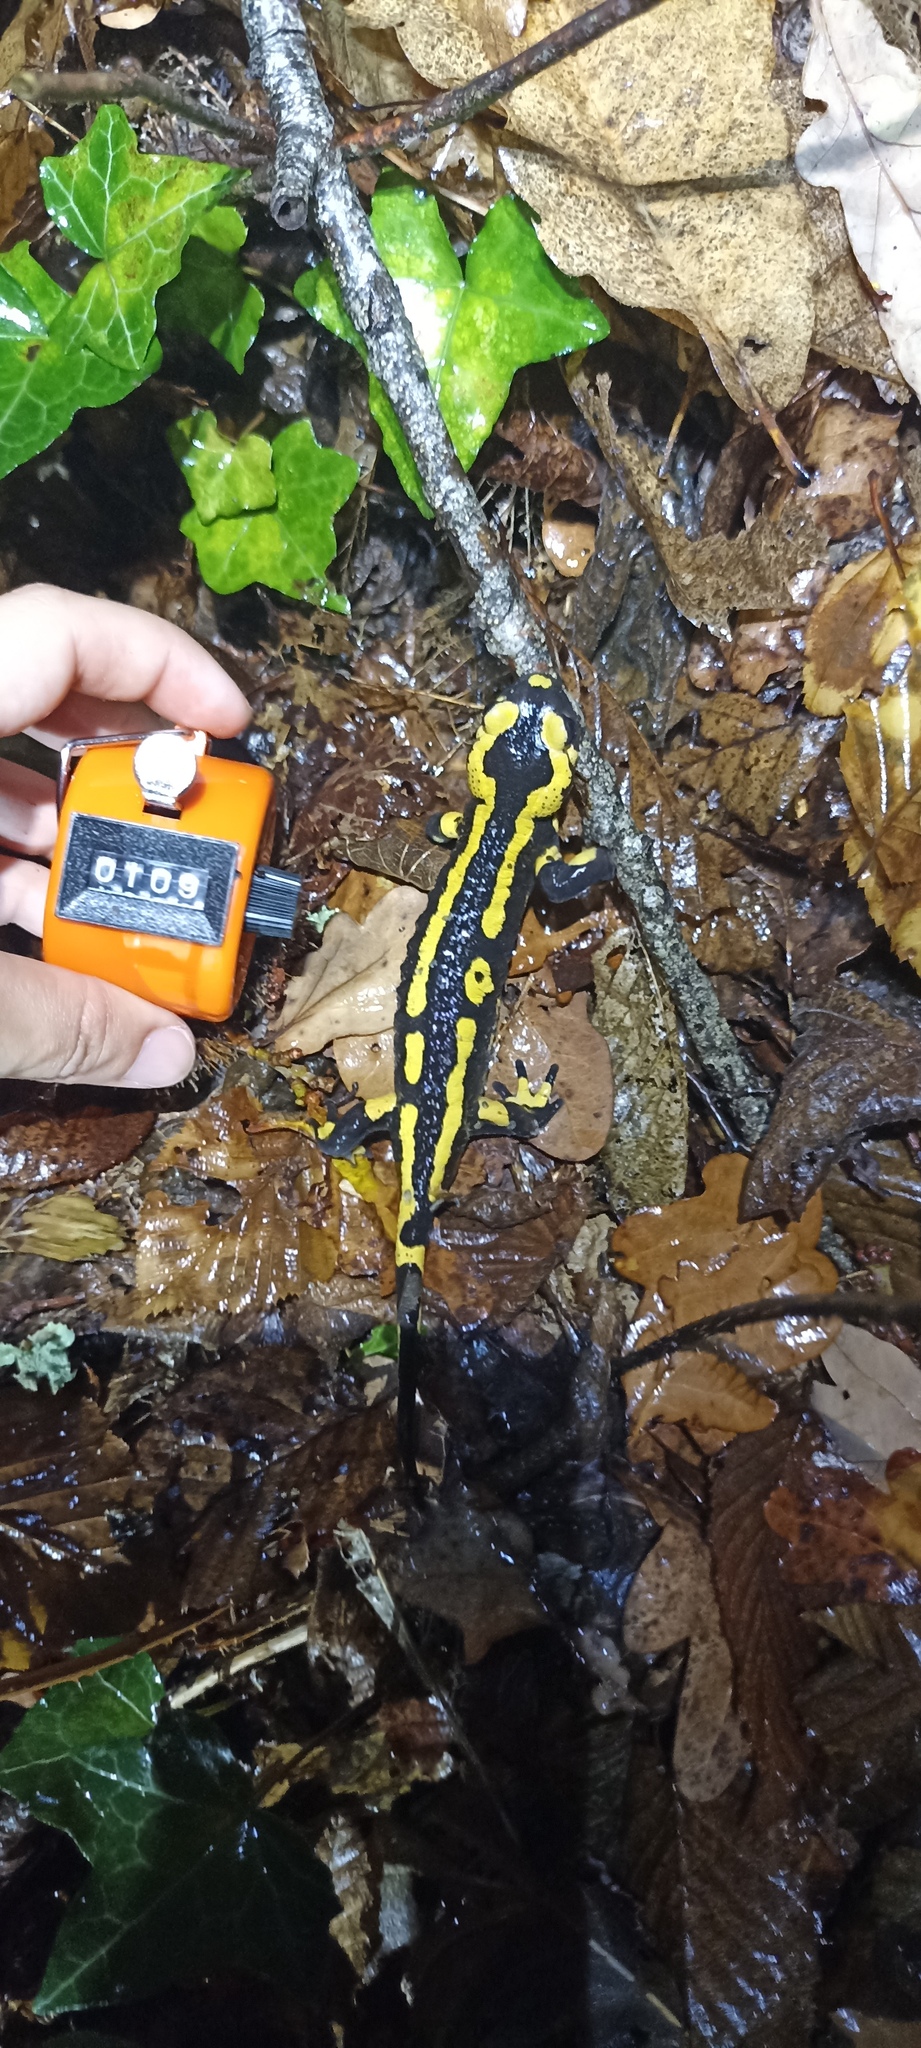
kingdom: Animalia
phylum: Chordata
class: Amphibia
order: Caudata
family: Salamandridae
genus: Salamandra
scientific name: Salamandra salamandra
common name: Fire salamander
